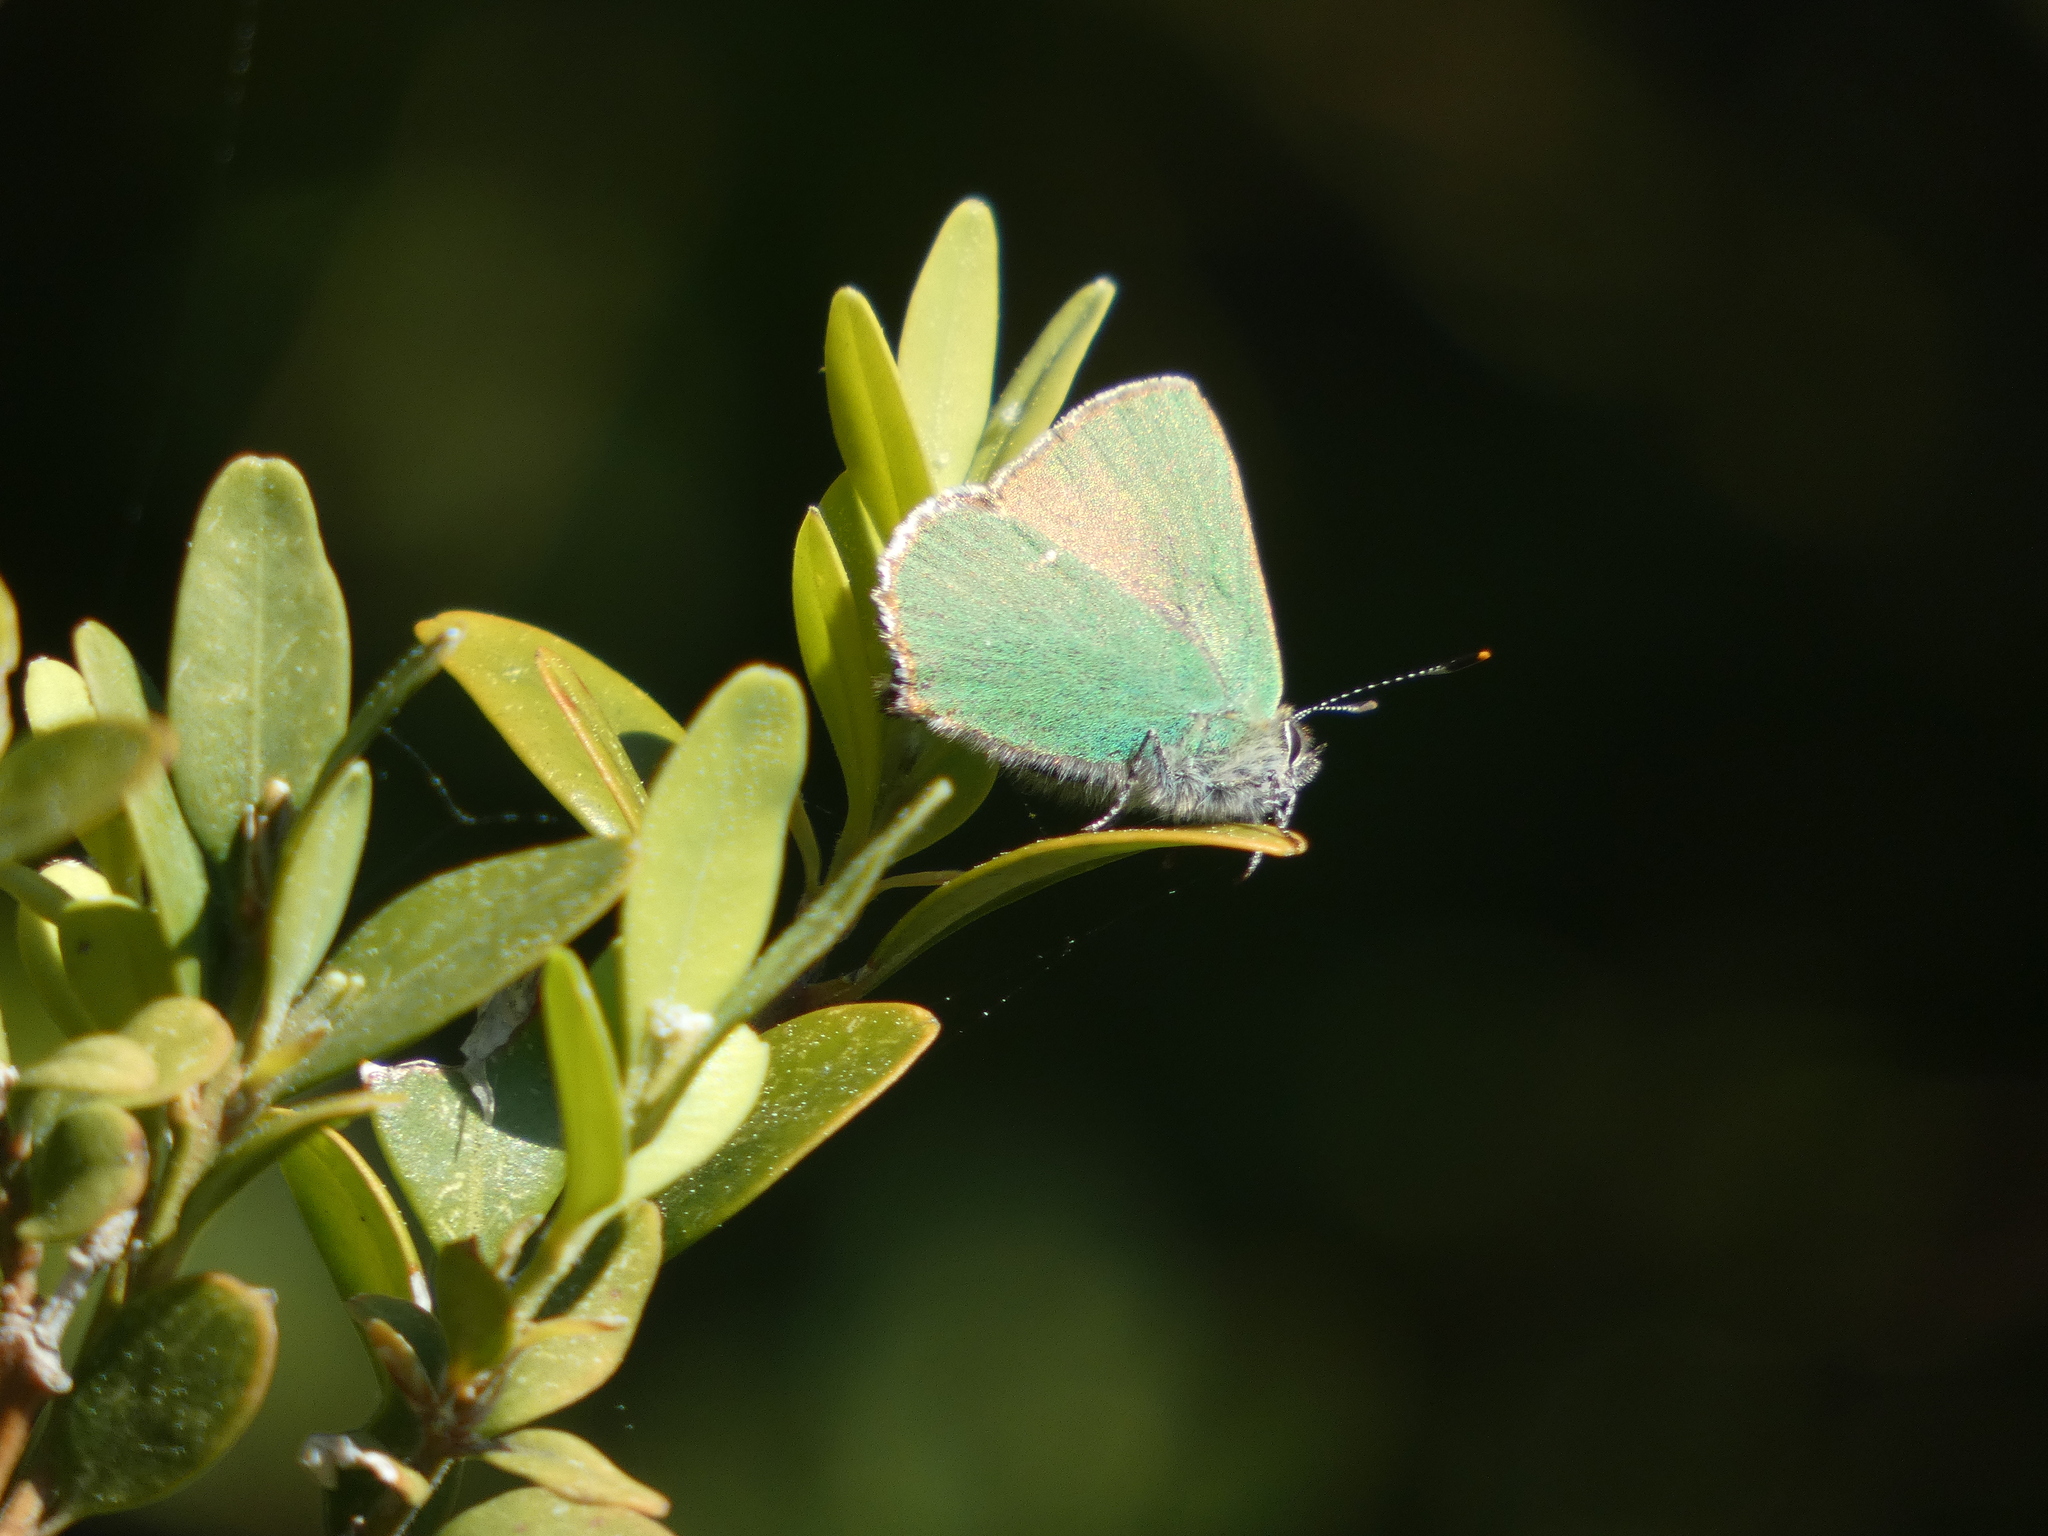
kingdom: Animalia
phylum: Arthropoda
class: Insecta
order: Lepidoptera
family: Lycaenidae
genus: Callophrys
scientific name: Callophrys rubi
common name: Green hairstreak
